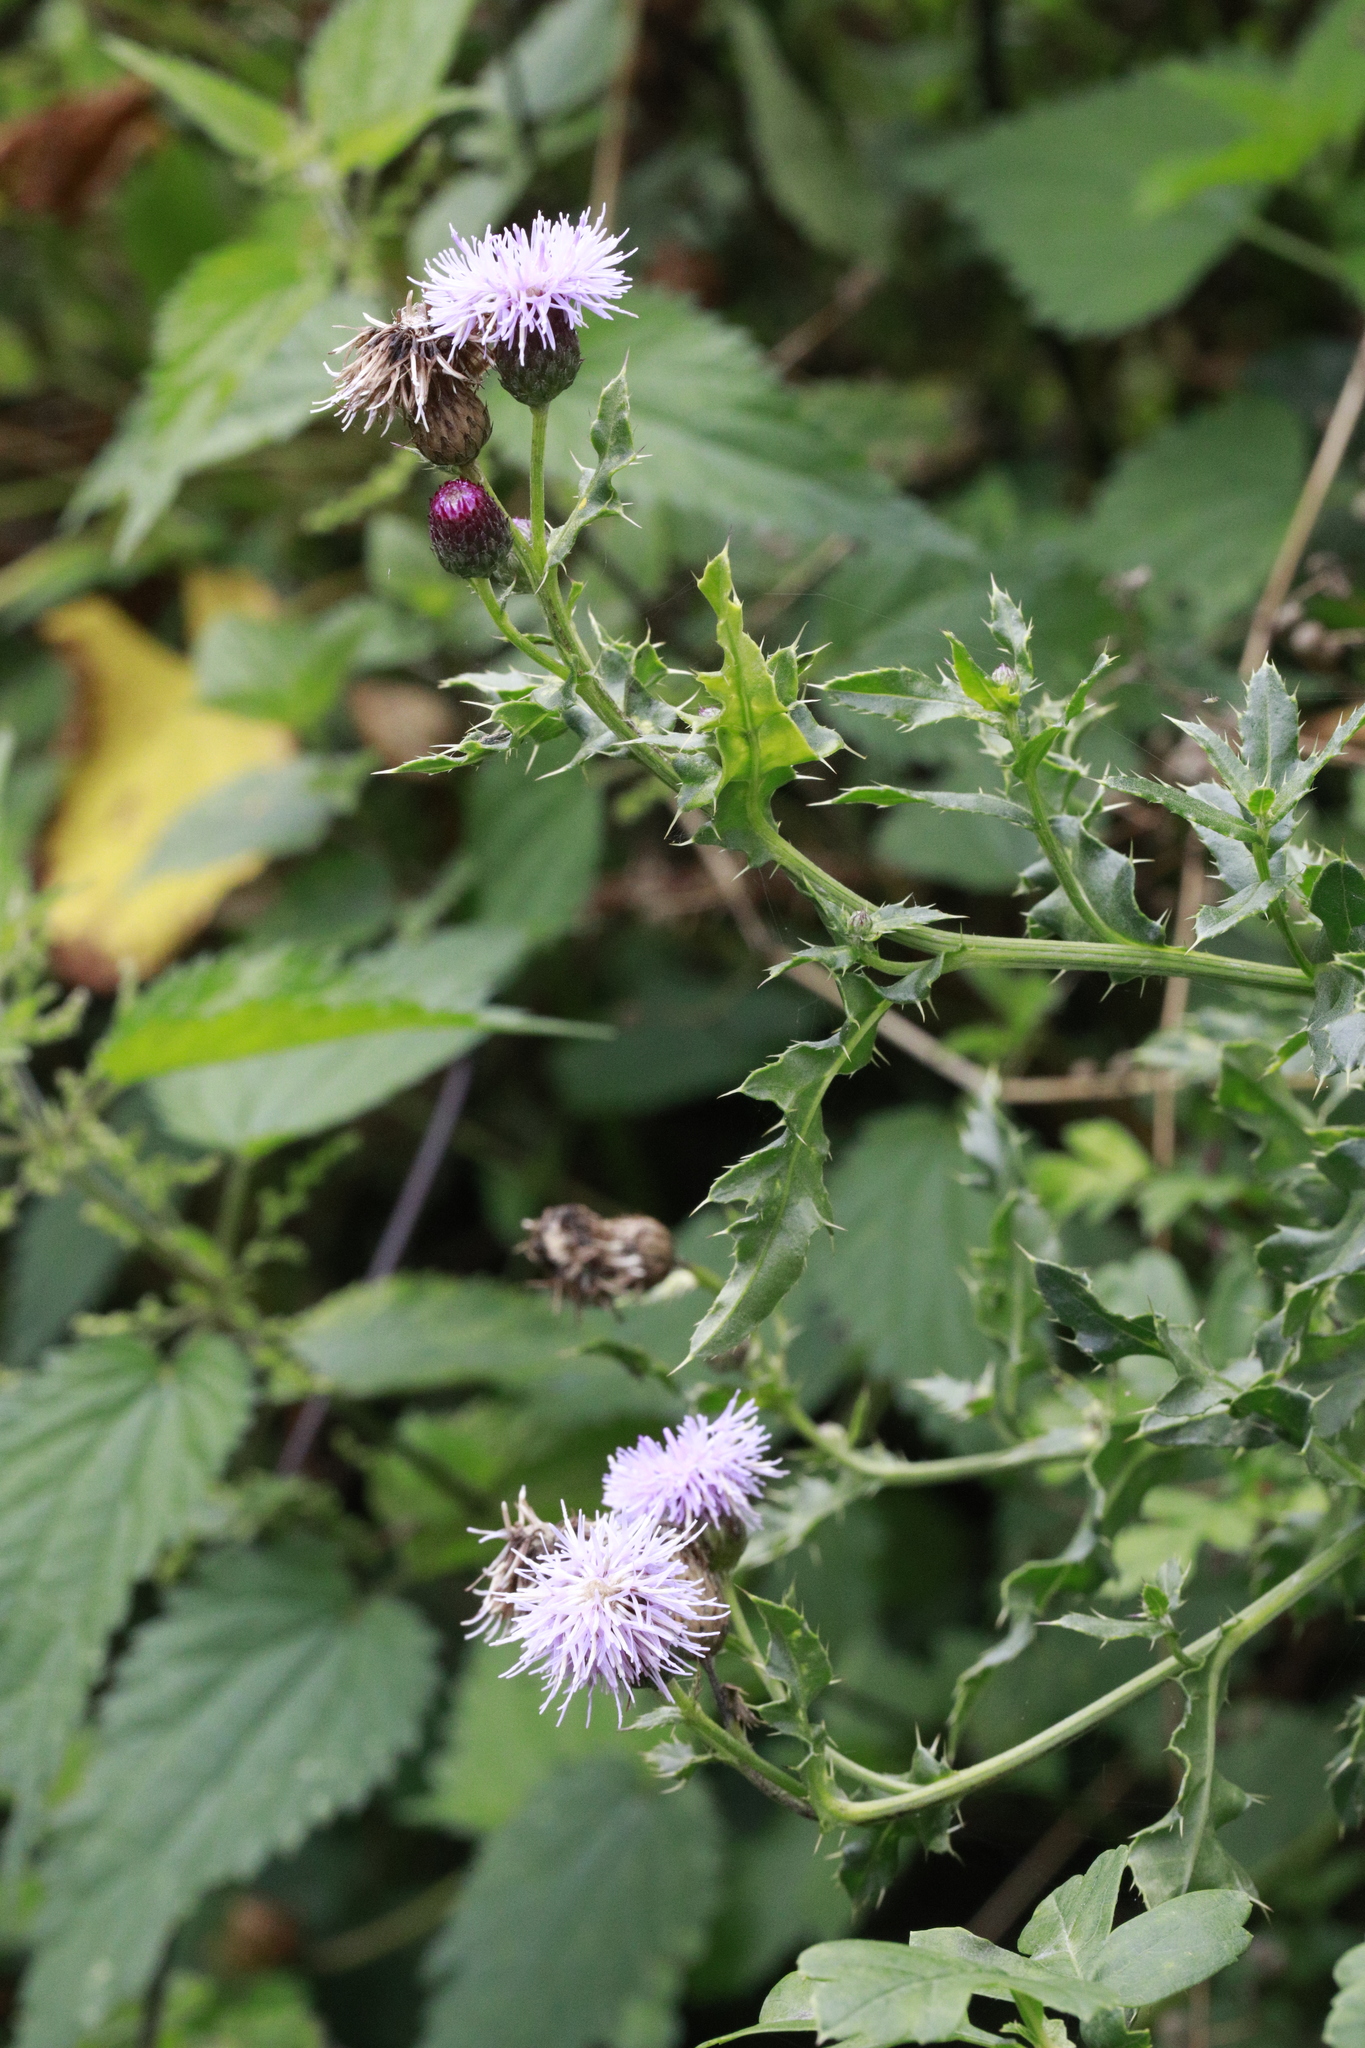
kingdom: Plantae
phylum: Tracheophyta
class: Magnoliopsida
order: Asterales
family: Asteraceae
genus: Cirsium
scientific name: Cirsium arvense
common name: Creeping thistle
